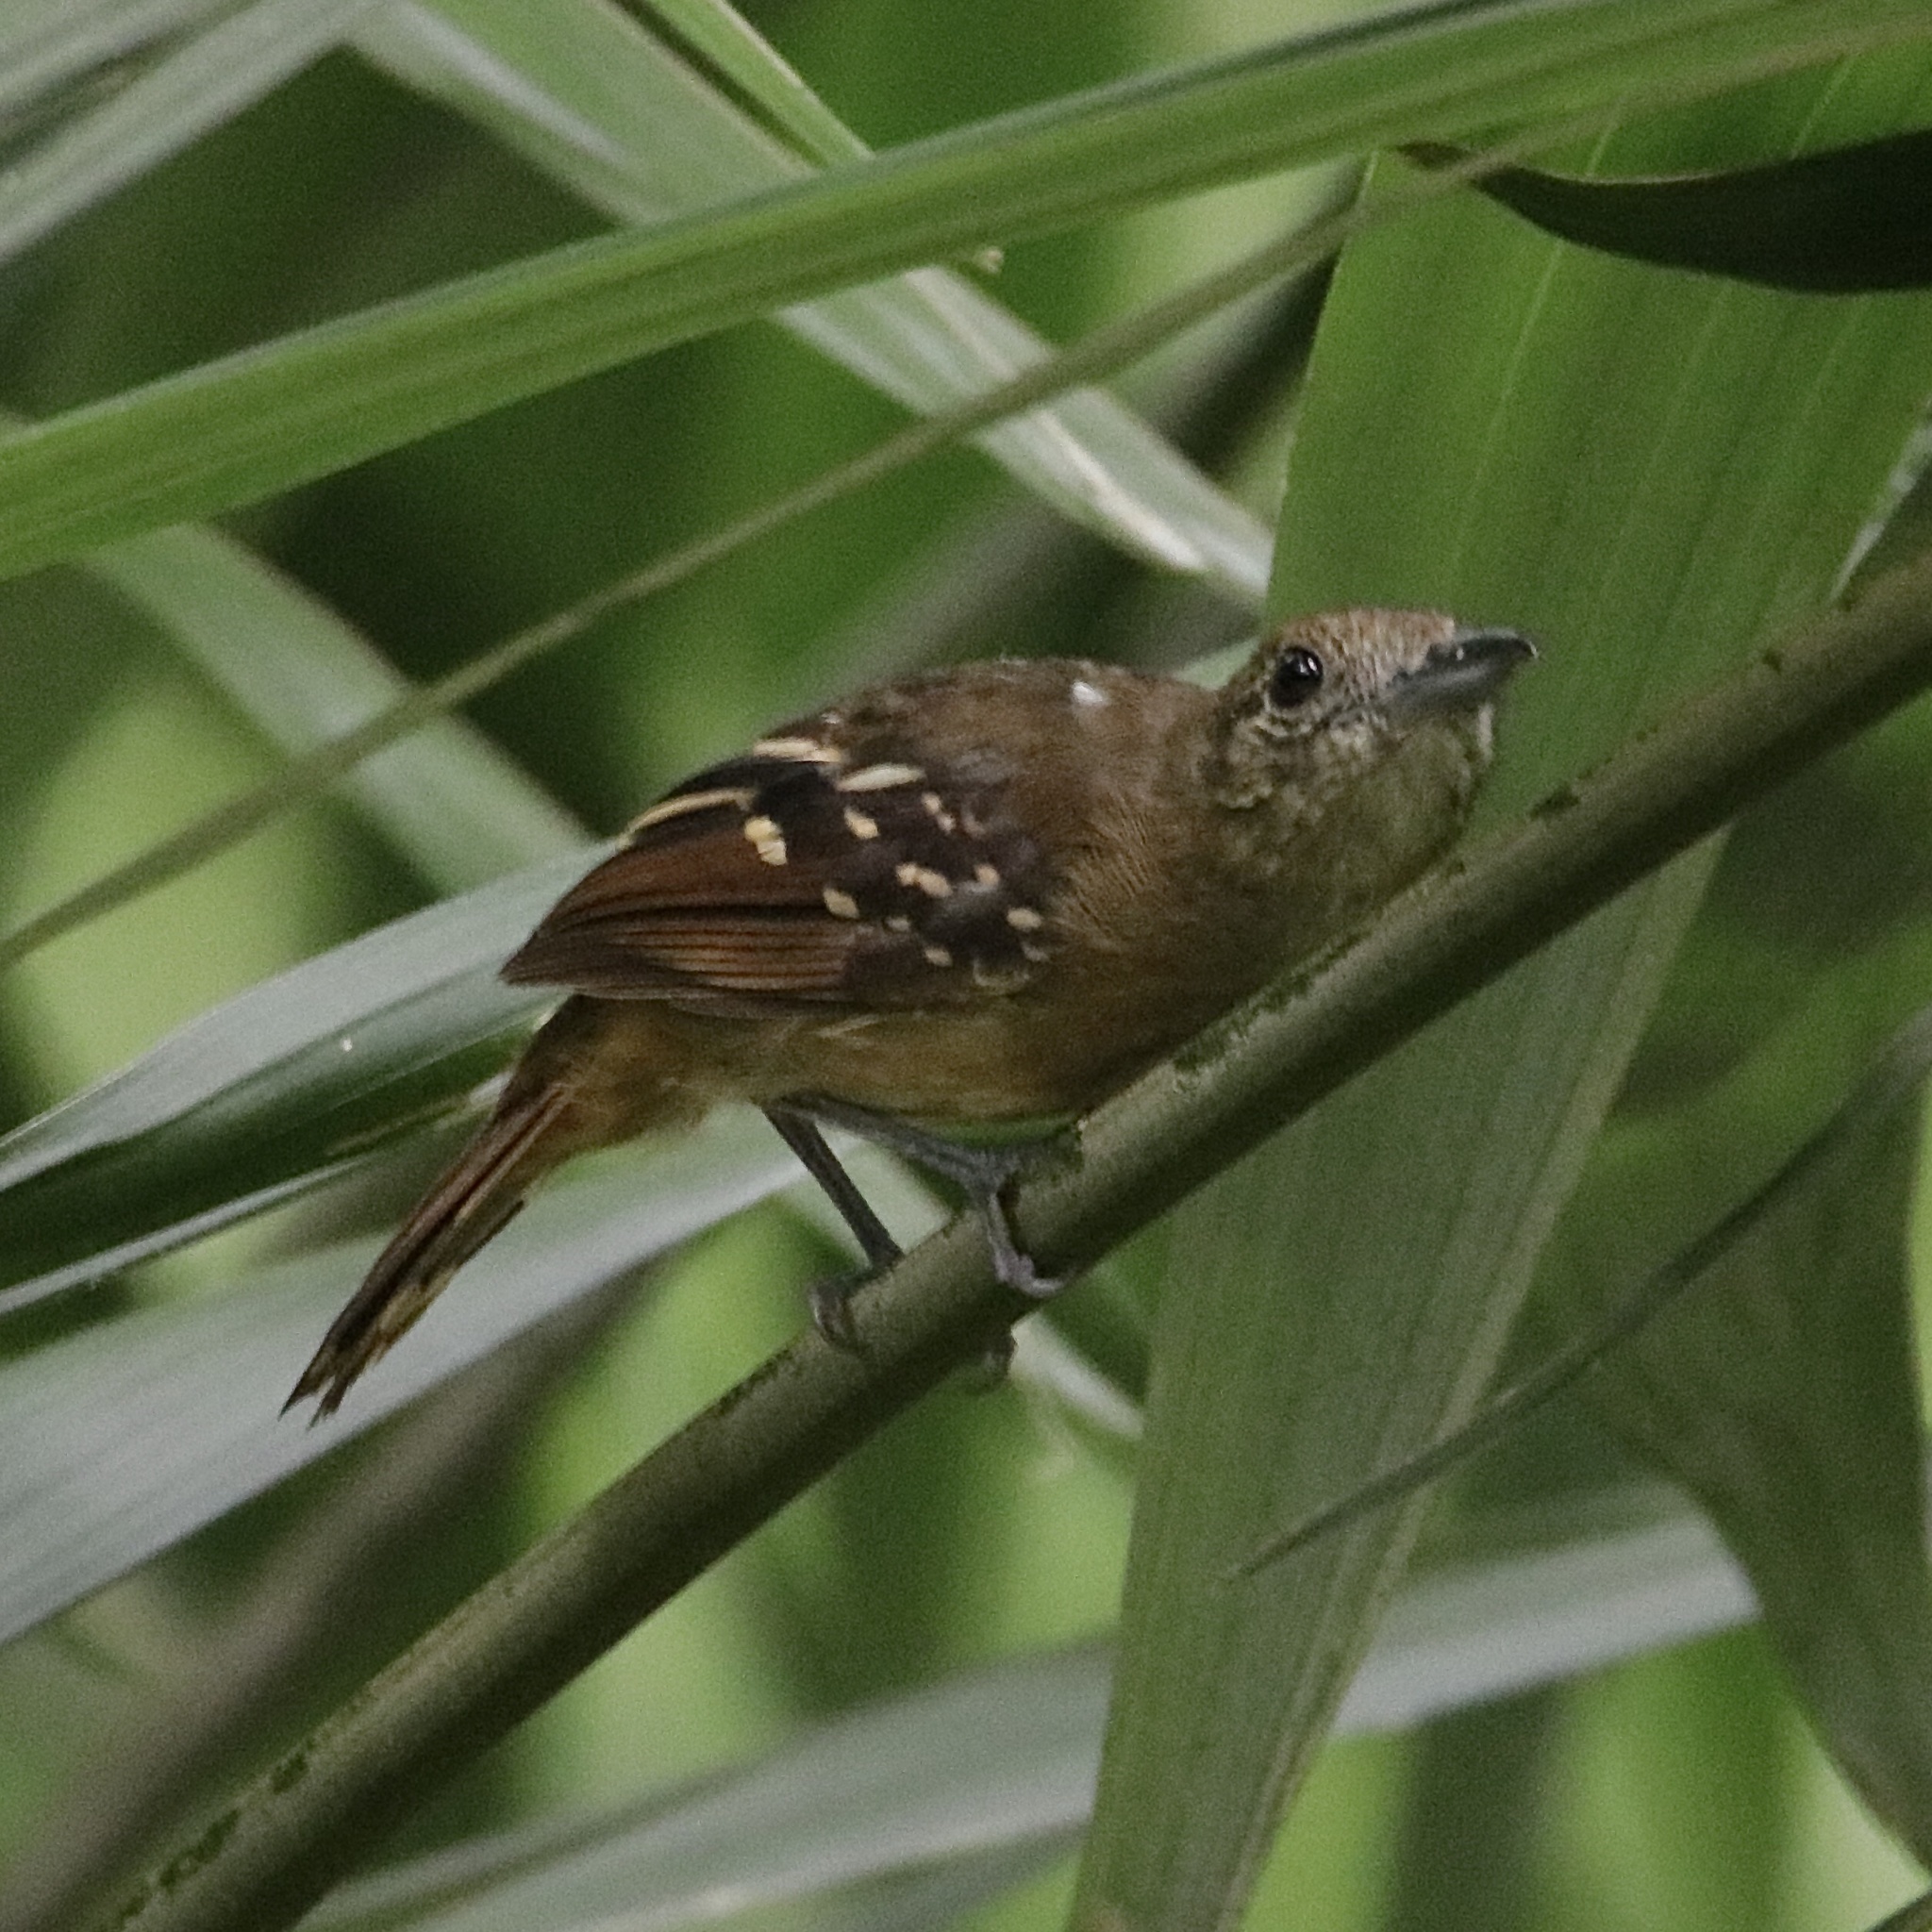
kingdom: Animalia
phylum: Chordata
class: Aves
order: Passeriformes
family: Thamnophilidae
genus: Thamnophilus
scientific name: Thamnophilus atrinucha
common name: Black-crowned antshrike
